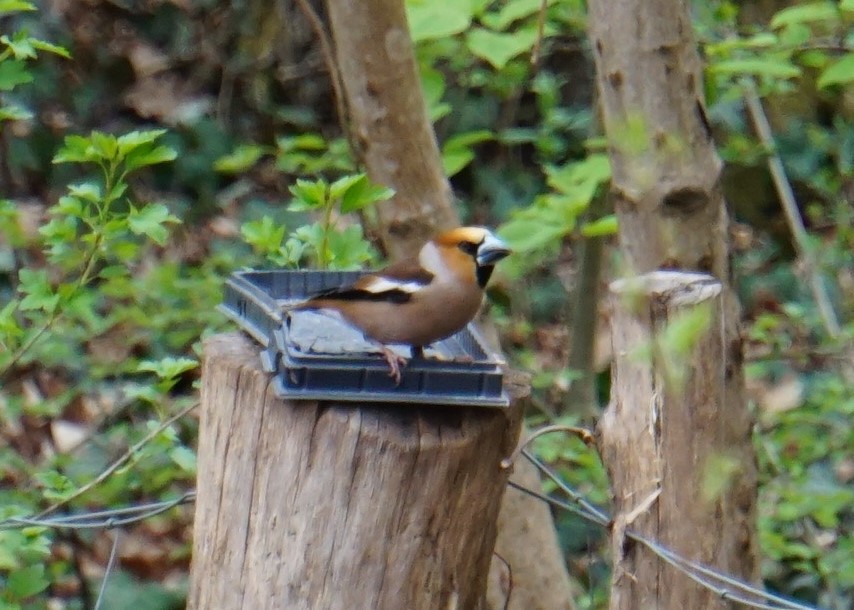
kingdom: Animalia
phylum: Chordata
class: Aves
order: Passeriformes
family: Fringillidae
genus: Coccothraustes
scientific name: Coccothraustes coccothraustes
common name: Hawfinch
